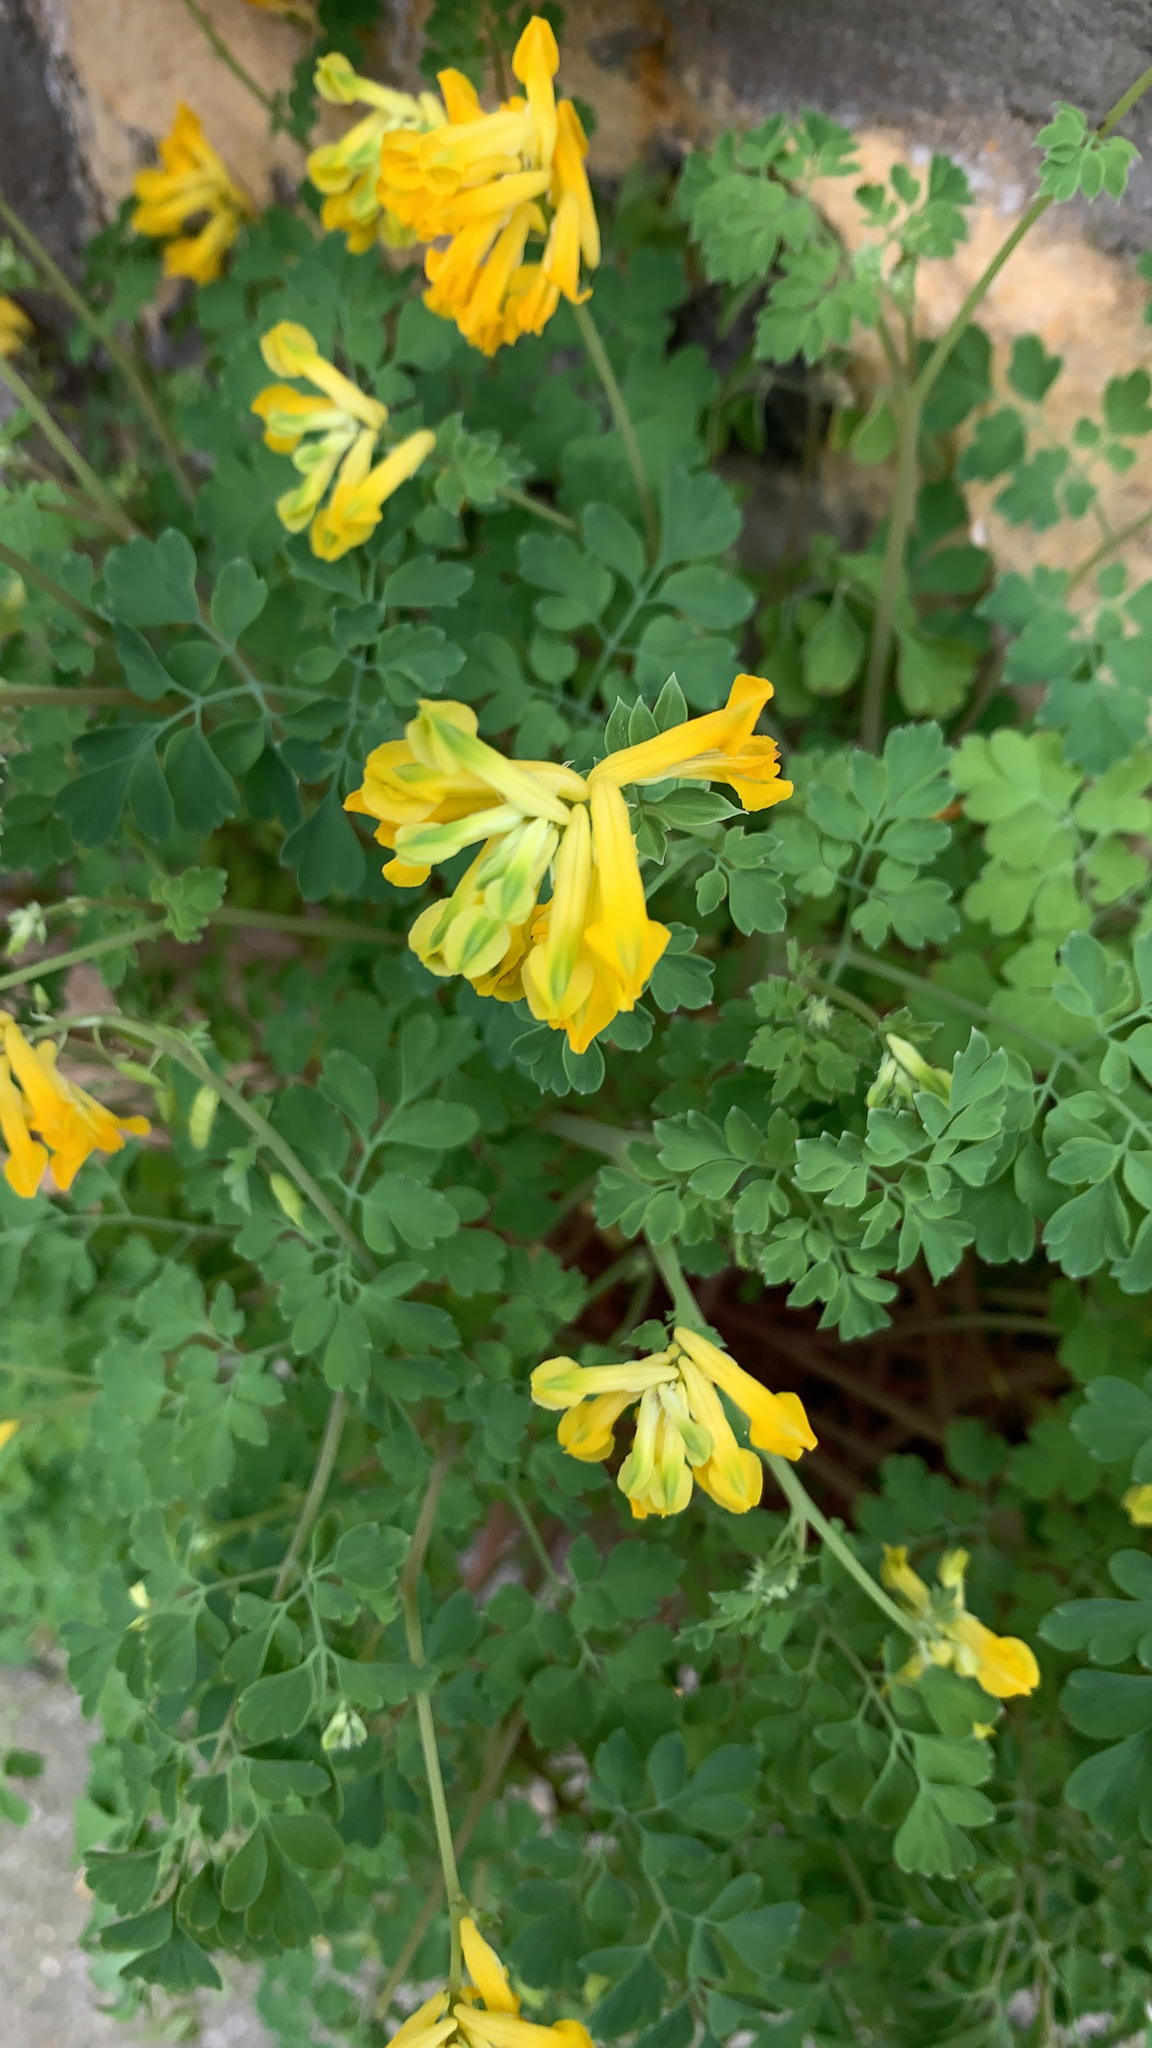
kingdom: Plantae
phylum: Tracheophyta
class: Magnoliopsida
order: Ranunculales
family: Papaveraceae
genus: Pseudofumaria
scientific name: Pseudofumaria lutea
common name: Yellow corydalis
